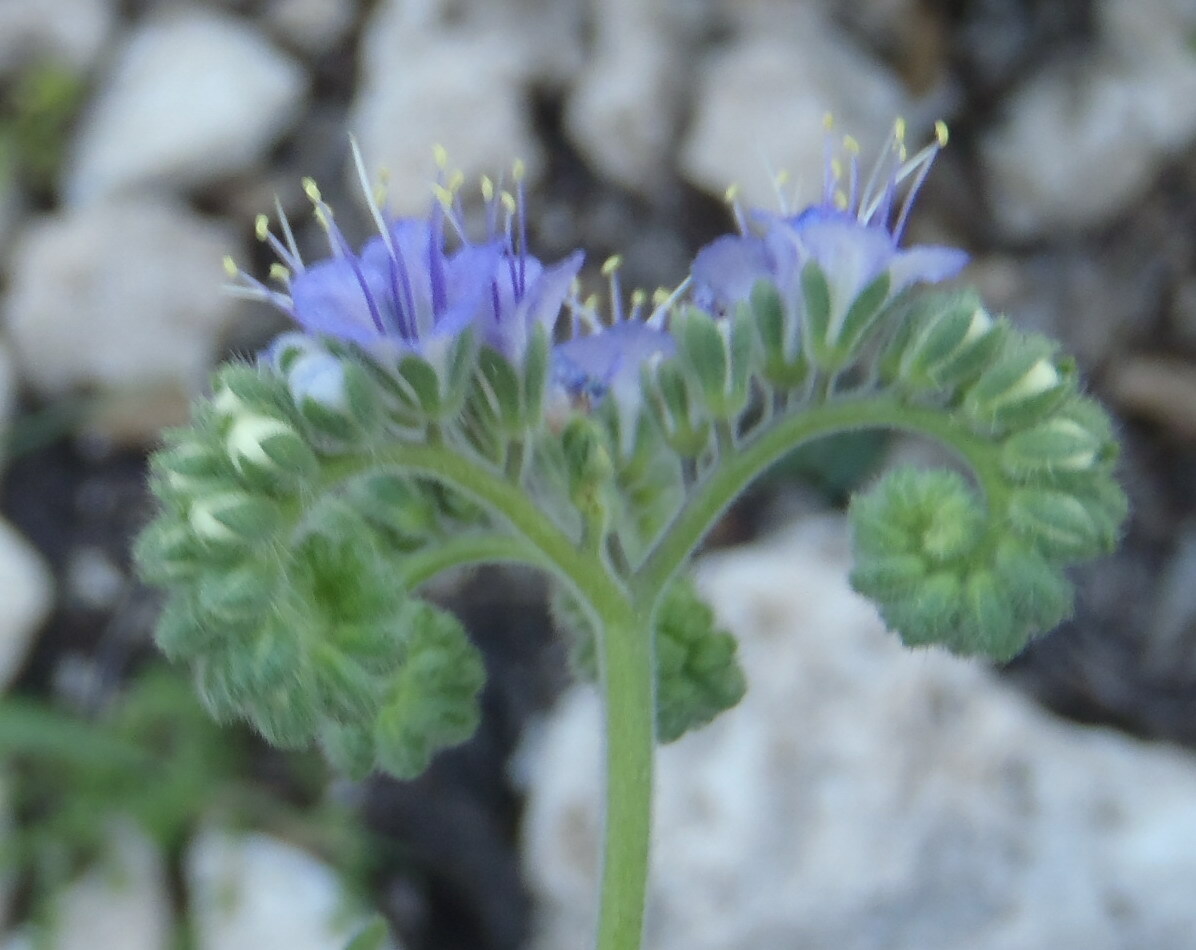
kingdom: Plantae
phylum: Tracheophyta
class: Magnoliopsida
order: Boraginales
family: Hydrophyllaceae
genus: Phacelia
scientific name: Phacelia congesta
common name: Blue curls
